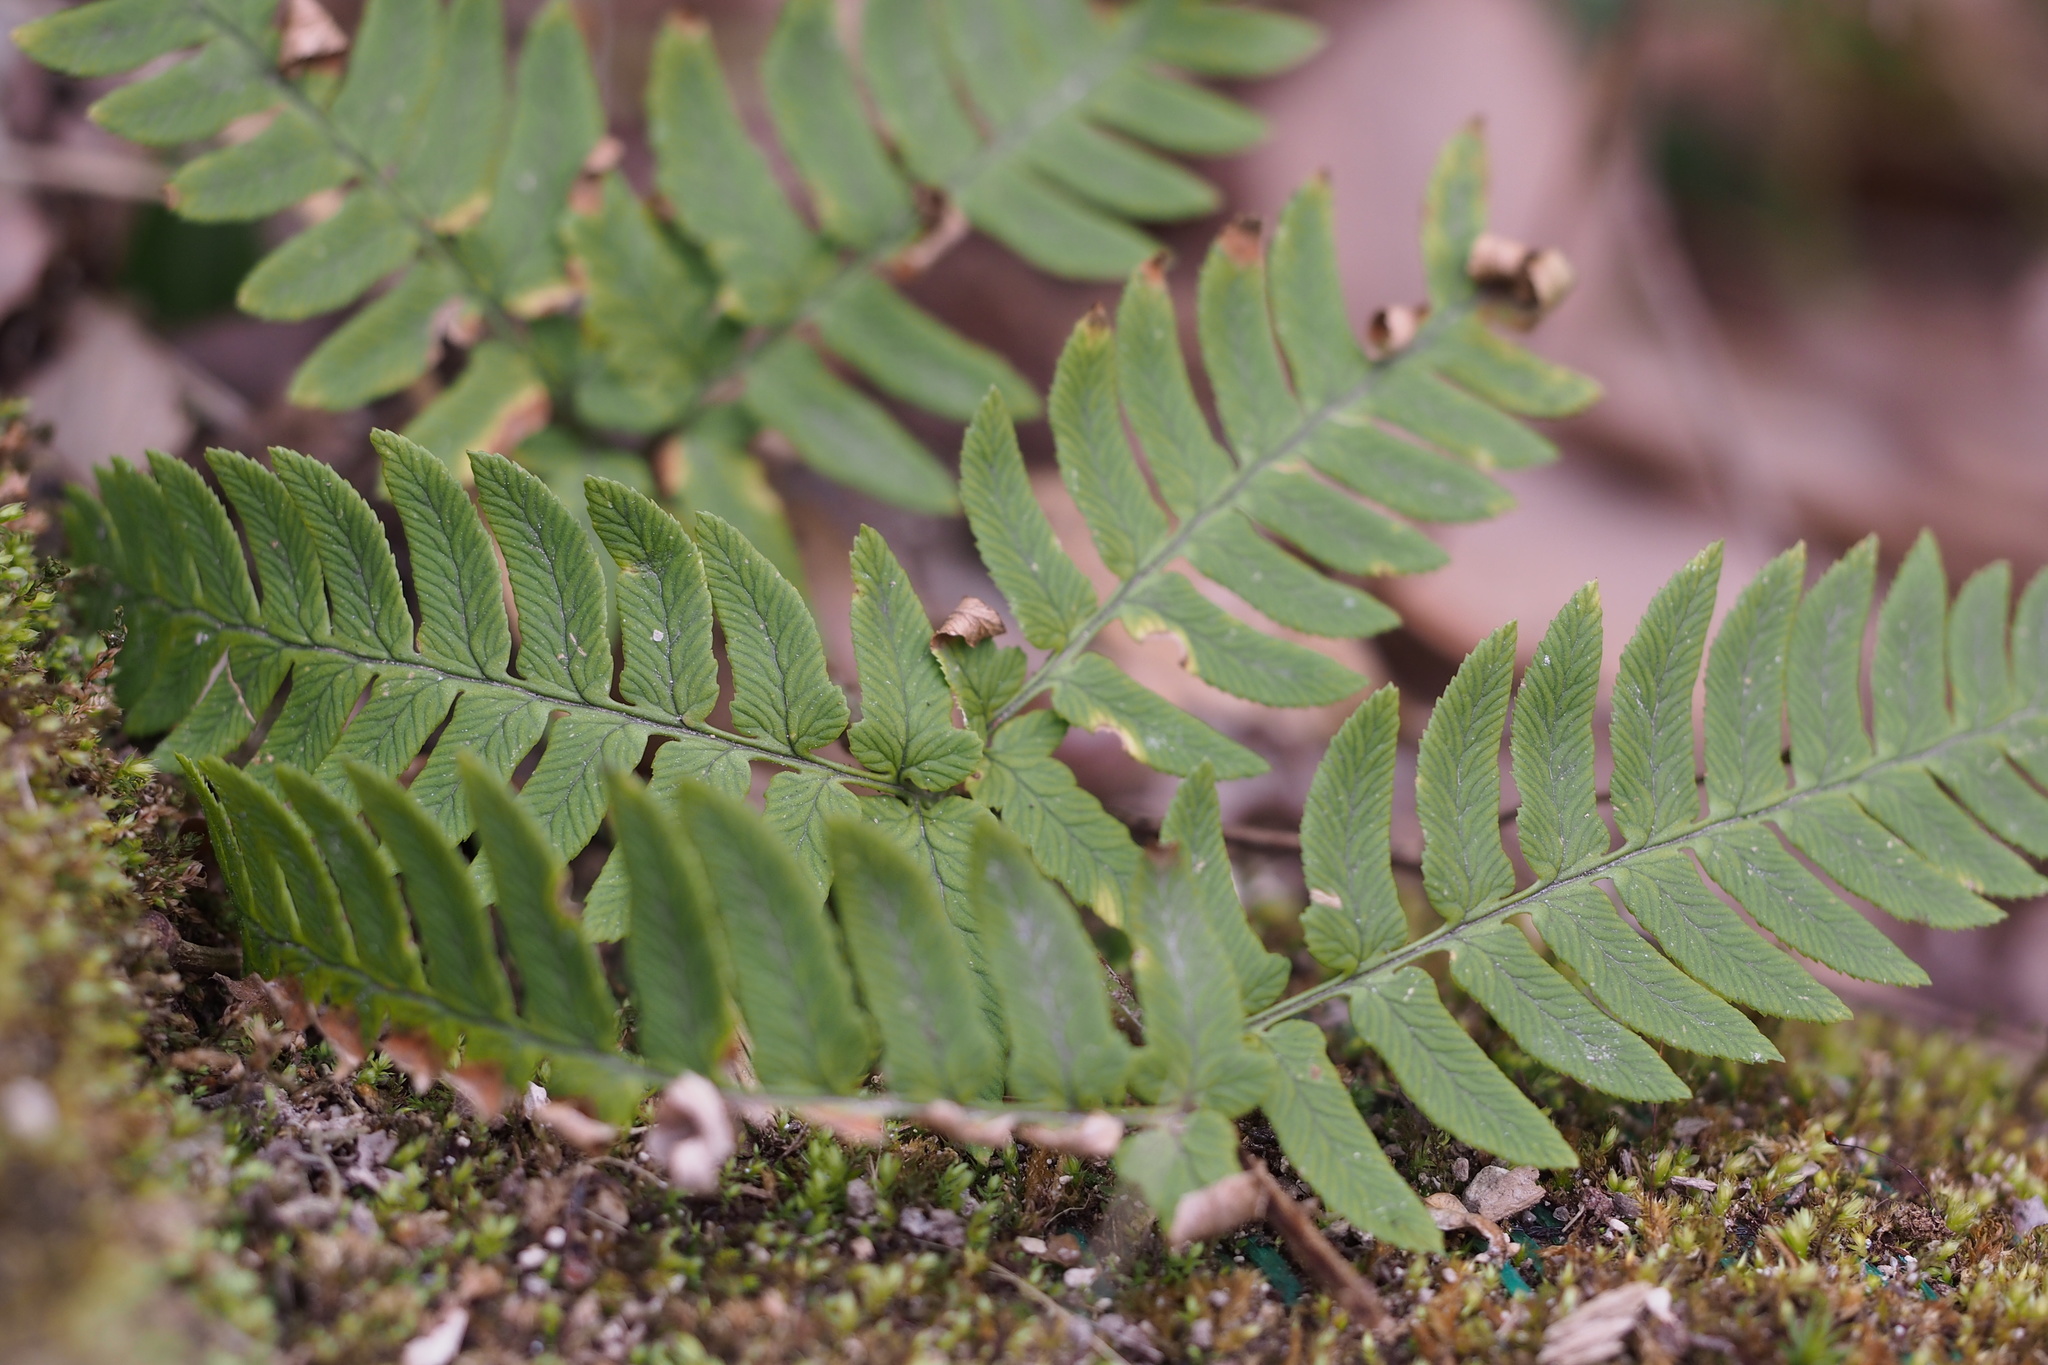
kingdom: Plantae
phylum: Tracheophyta
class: Polypodiopsida
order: Polypodiales
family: Dryopteridaceae
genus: Dryopteris
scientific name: Dryopteris lacera
